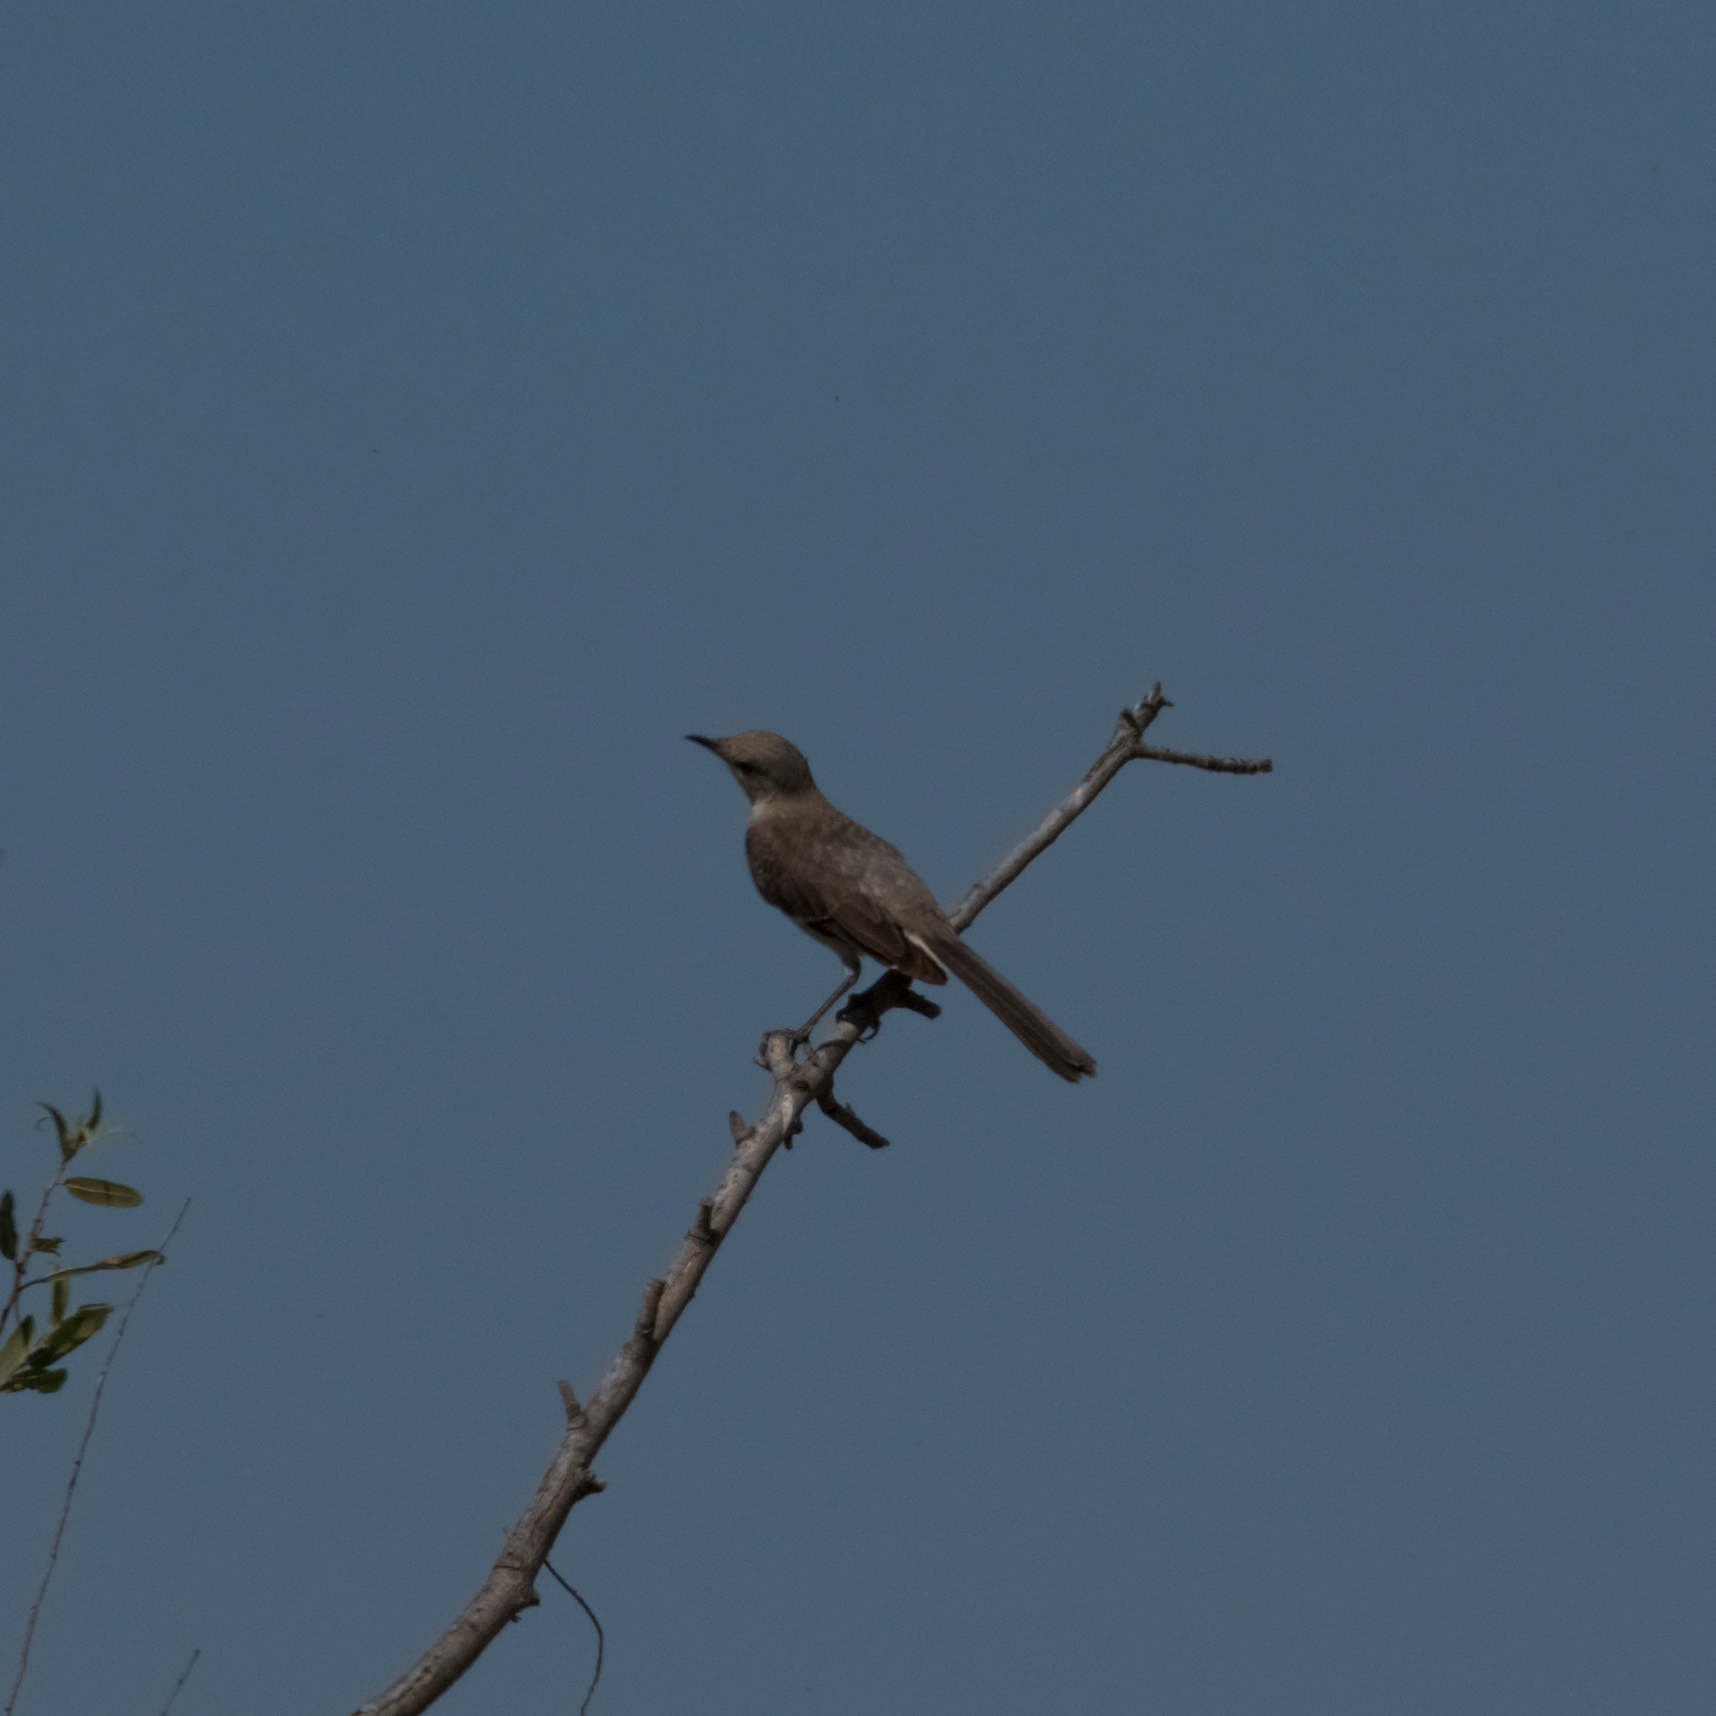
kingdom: Animalia
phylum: Chordata
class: Aves
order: Passeriformes
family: Mimidae
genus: Mimus
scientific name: Mimus polyglottos
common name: Northern mockingbird
